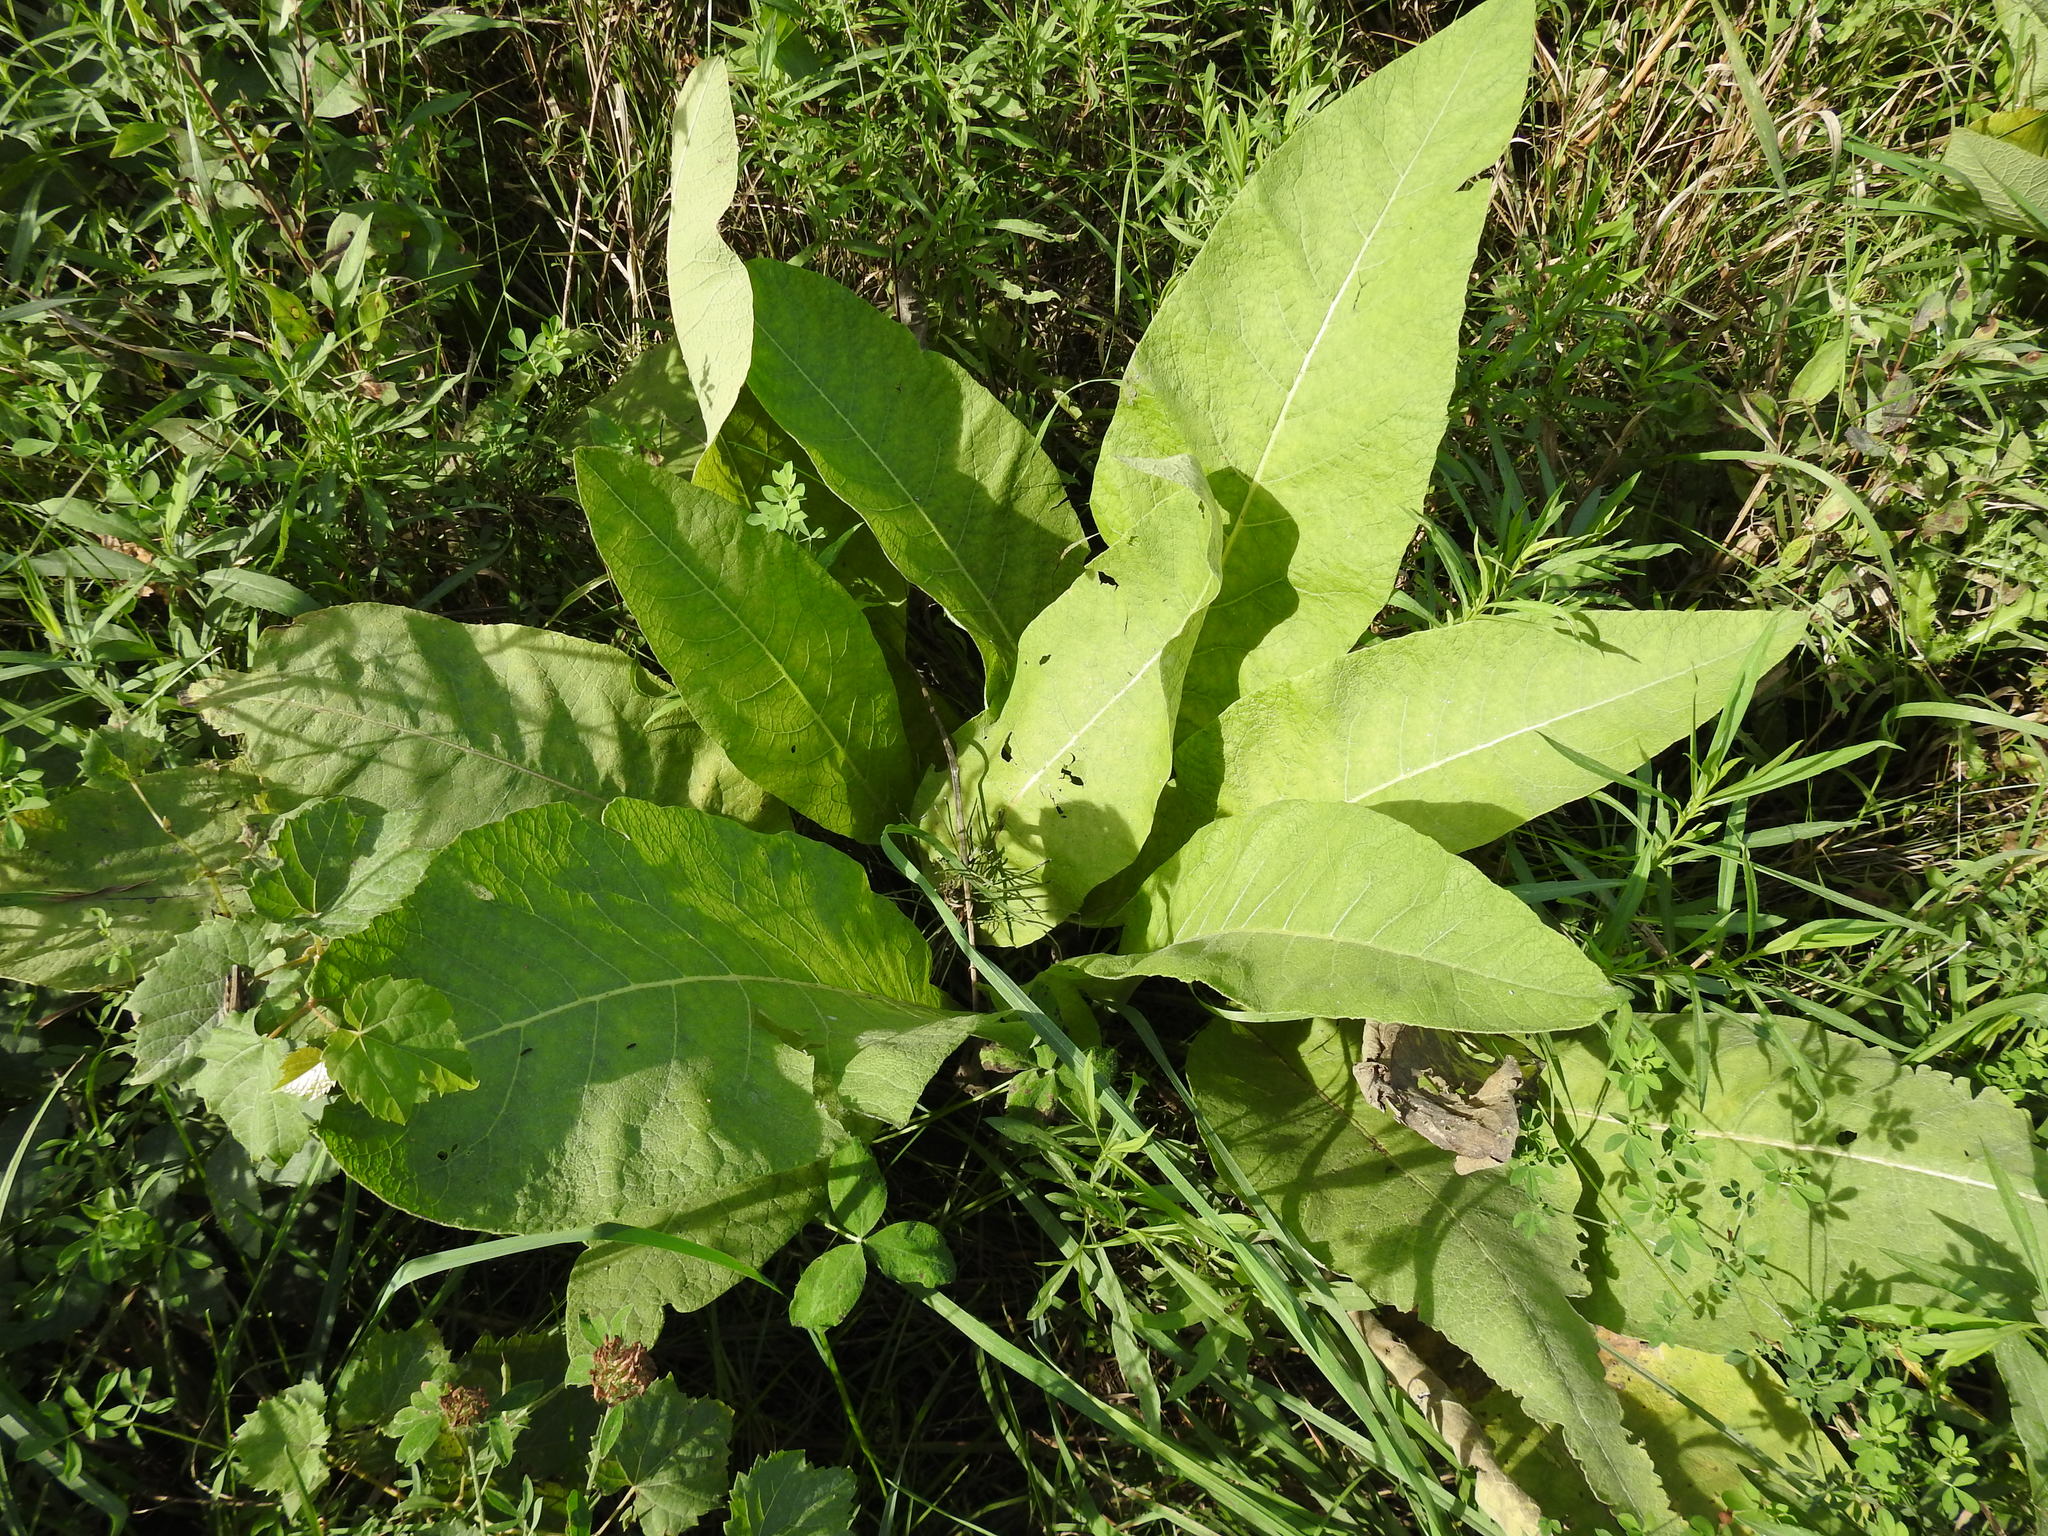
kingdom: Plantae
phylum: Tracheophyta
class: Magnoliopsida
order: Asterales
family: Asteraceae
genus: Inula
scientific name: Inula helenium
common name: Elecampane
